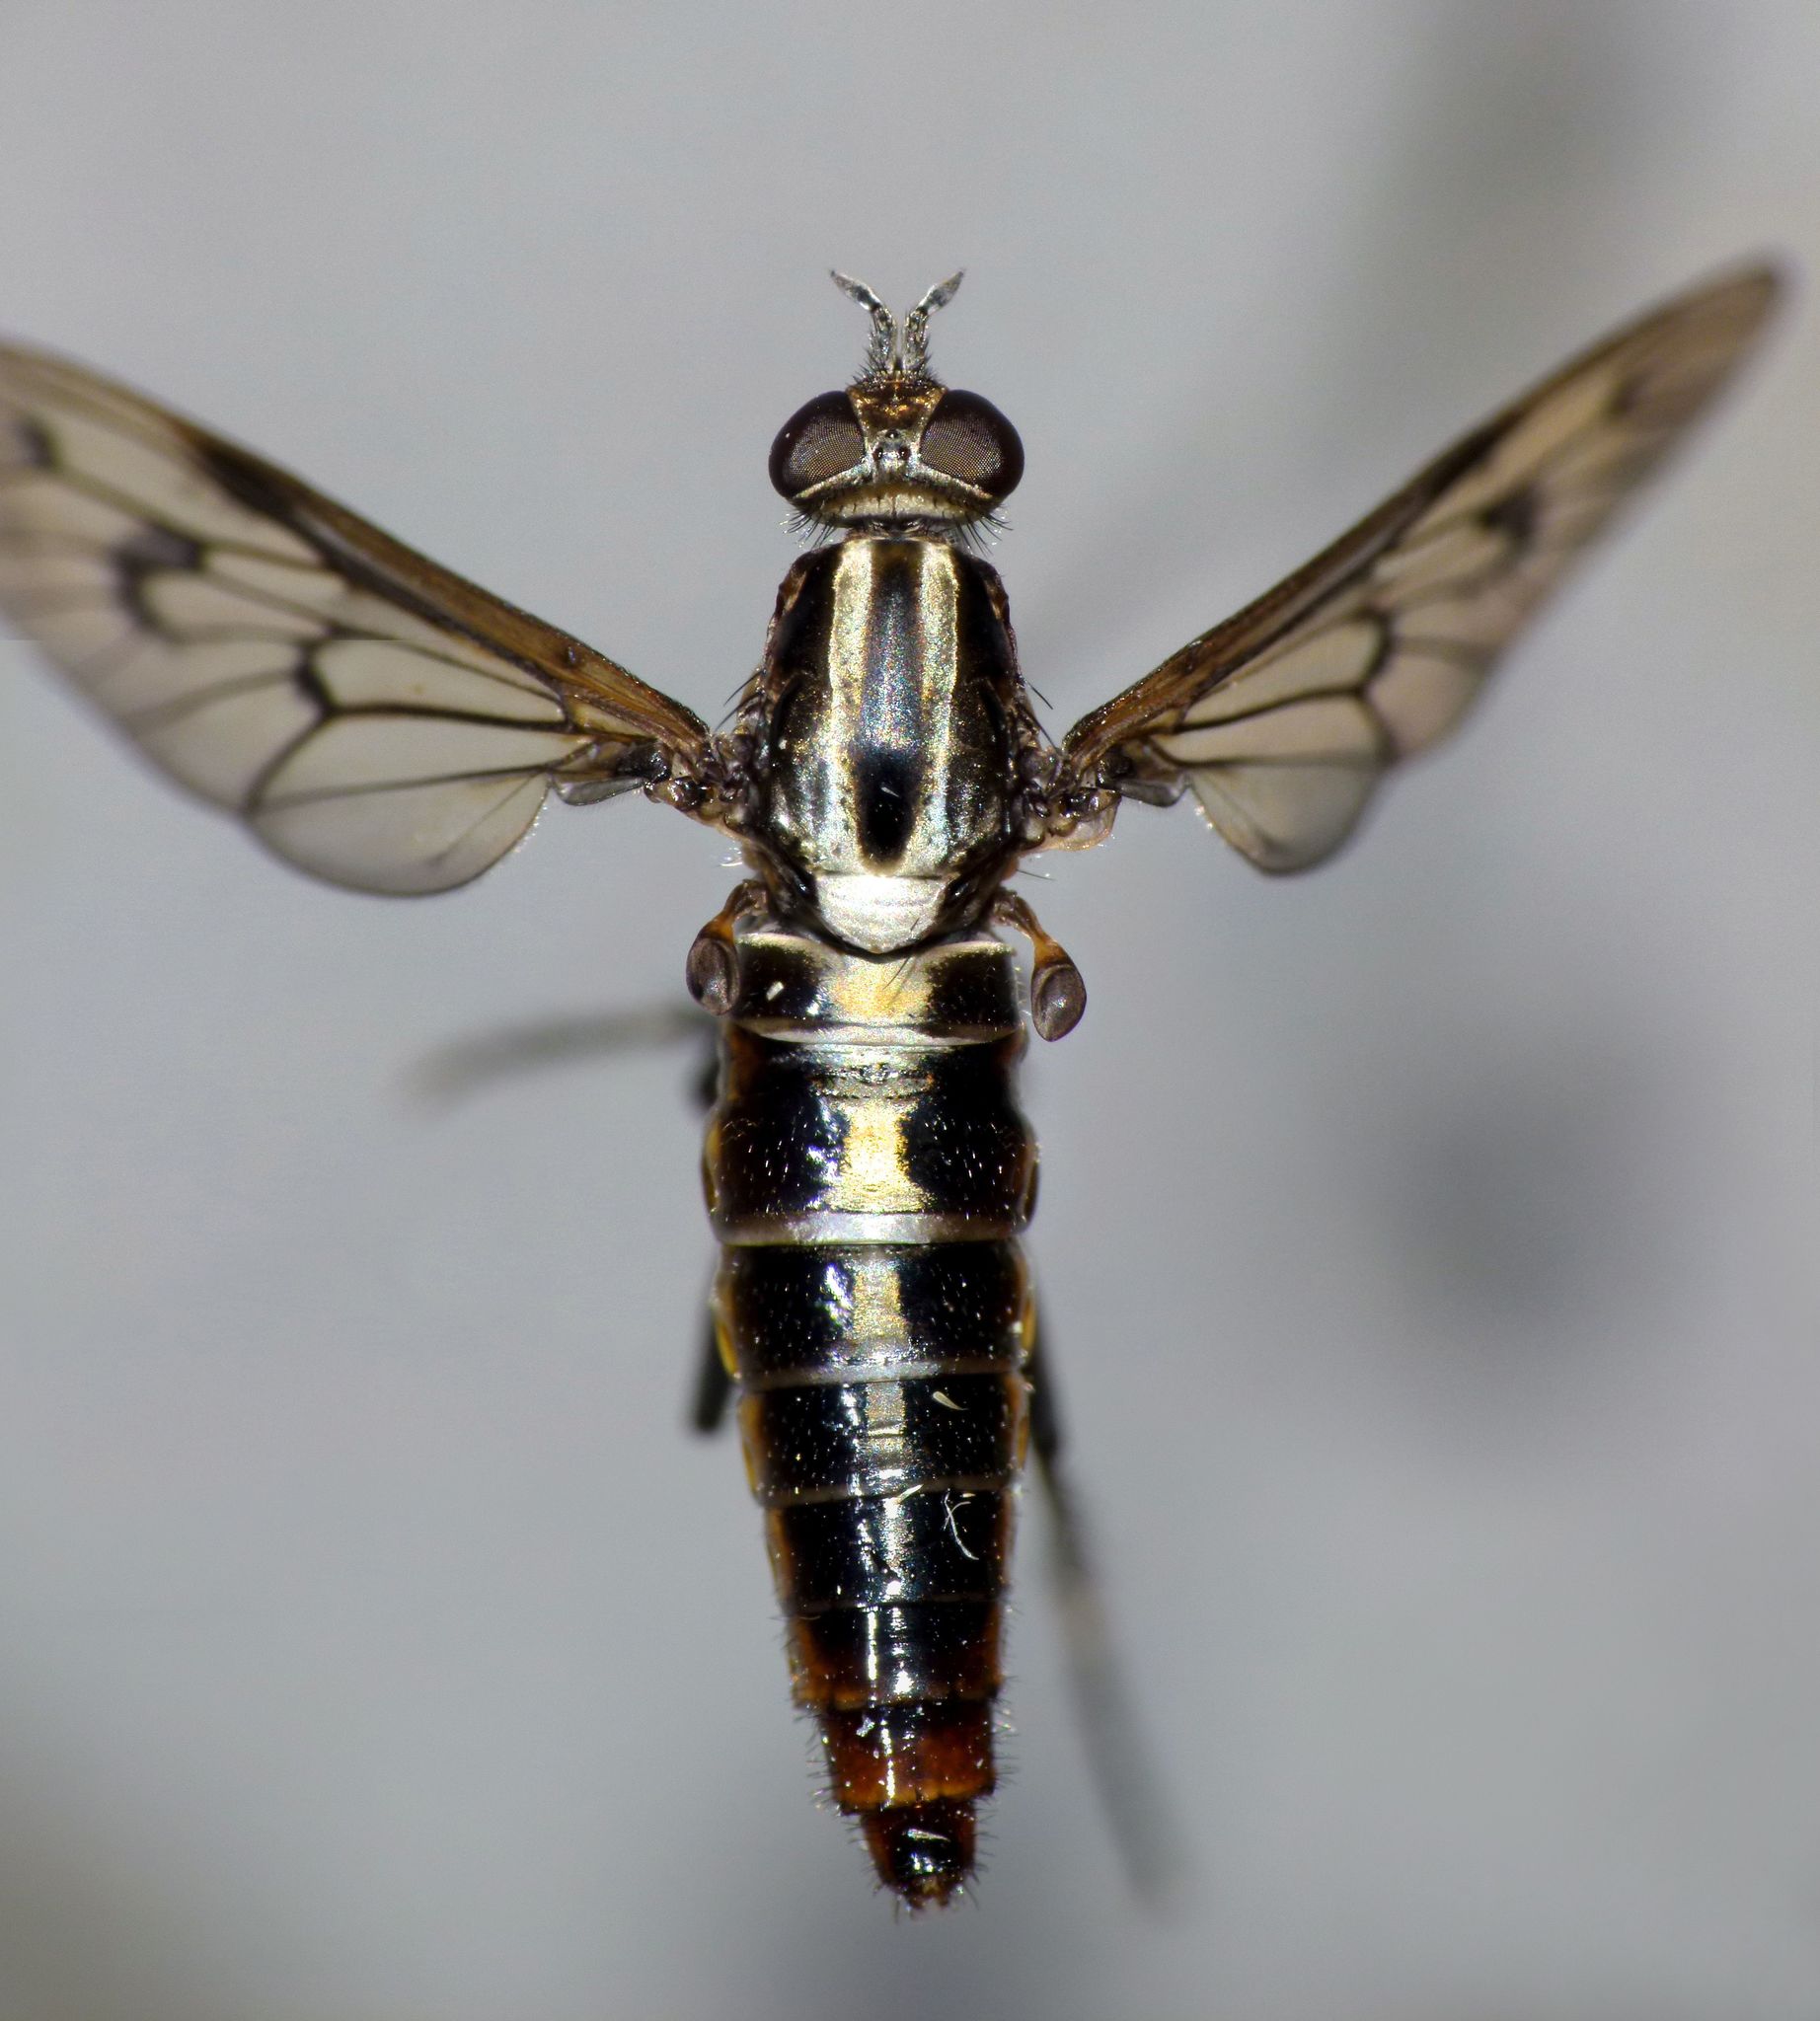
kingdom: Animalia
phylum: Arthropoda
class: Insecta
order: Diptera
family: Therevidae
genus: Anabarhynchus
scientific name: Anabarhynchus micans
